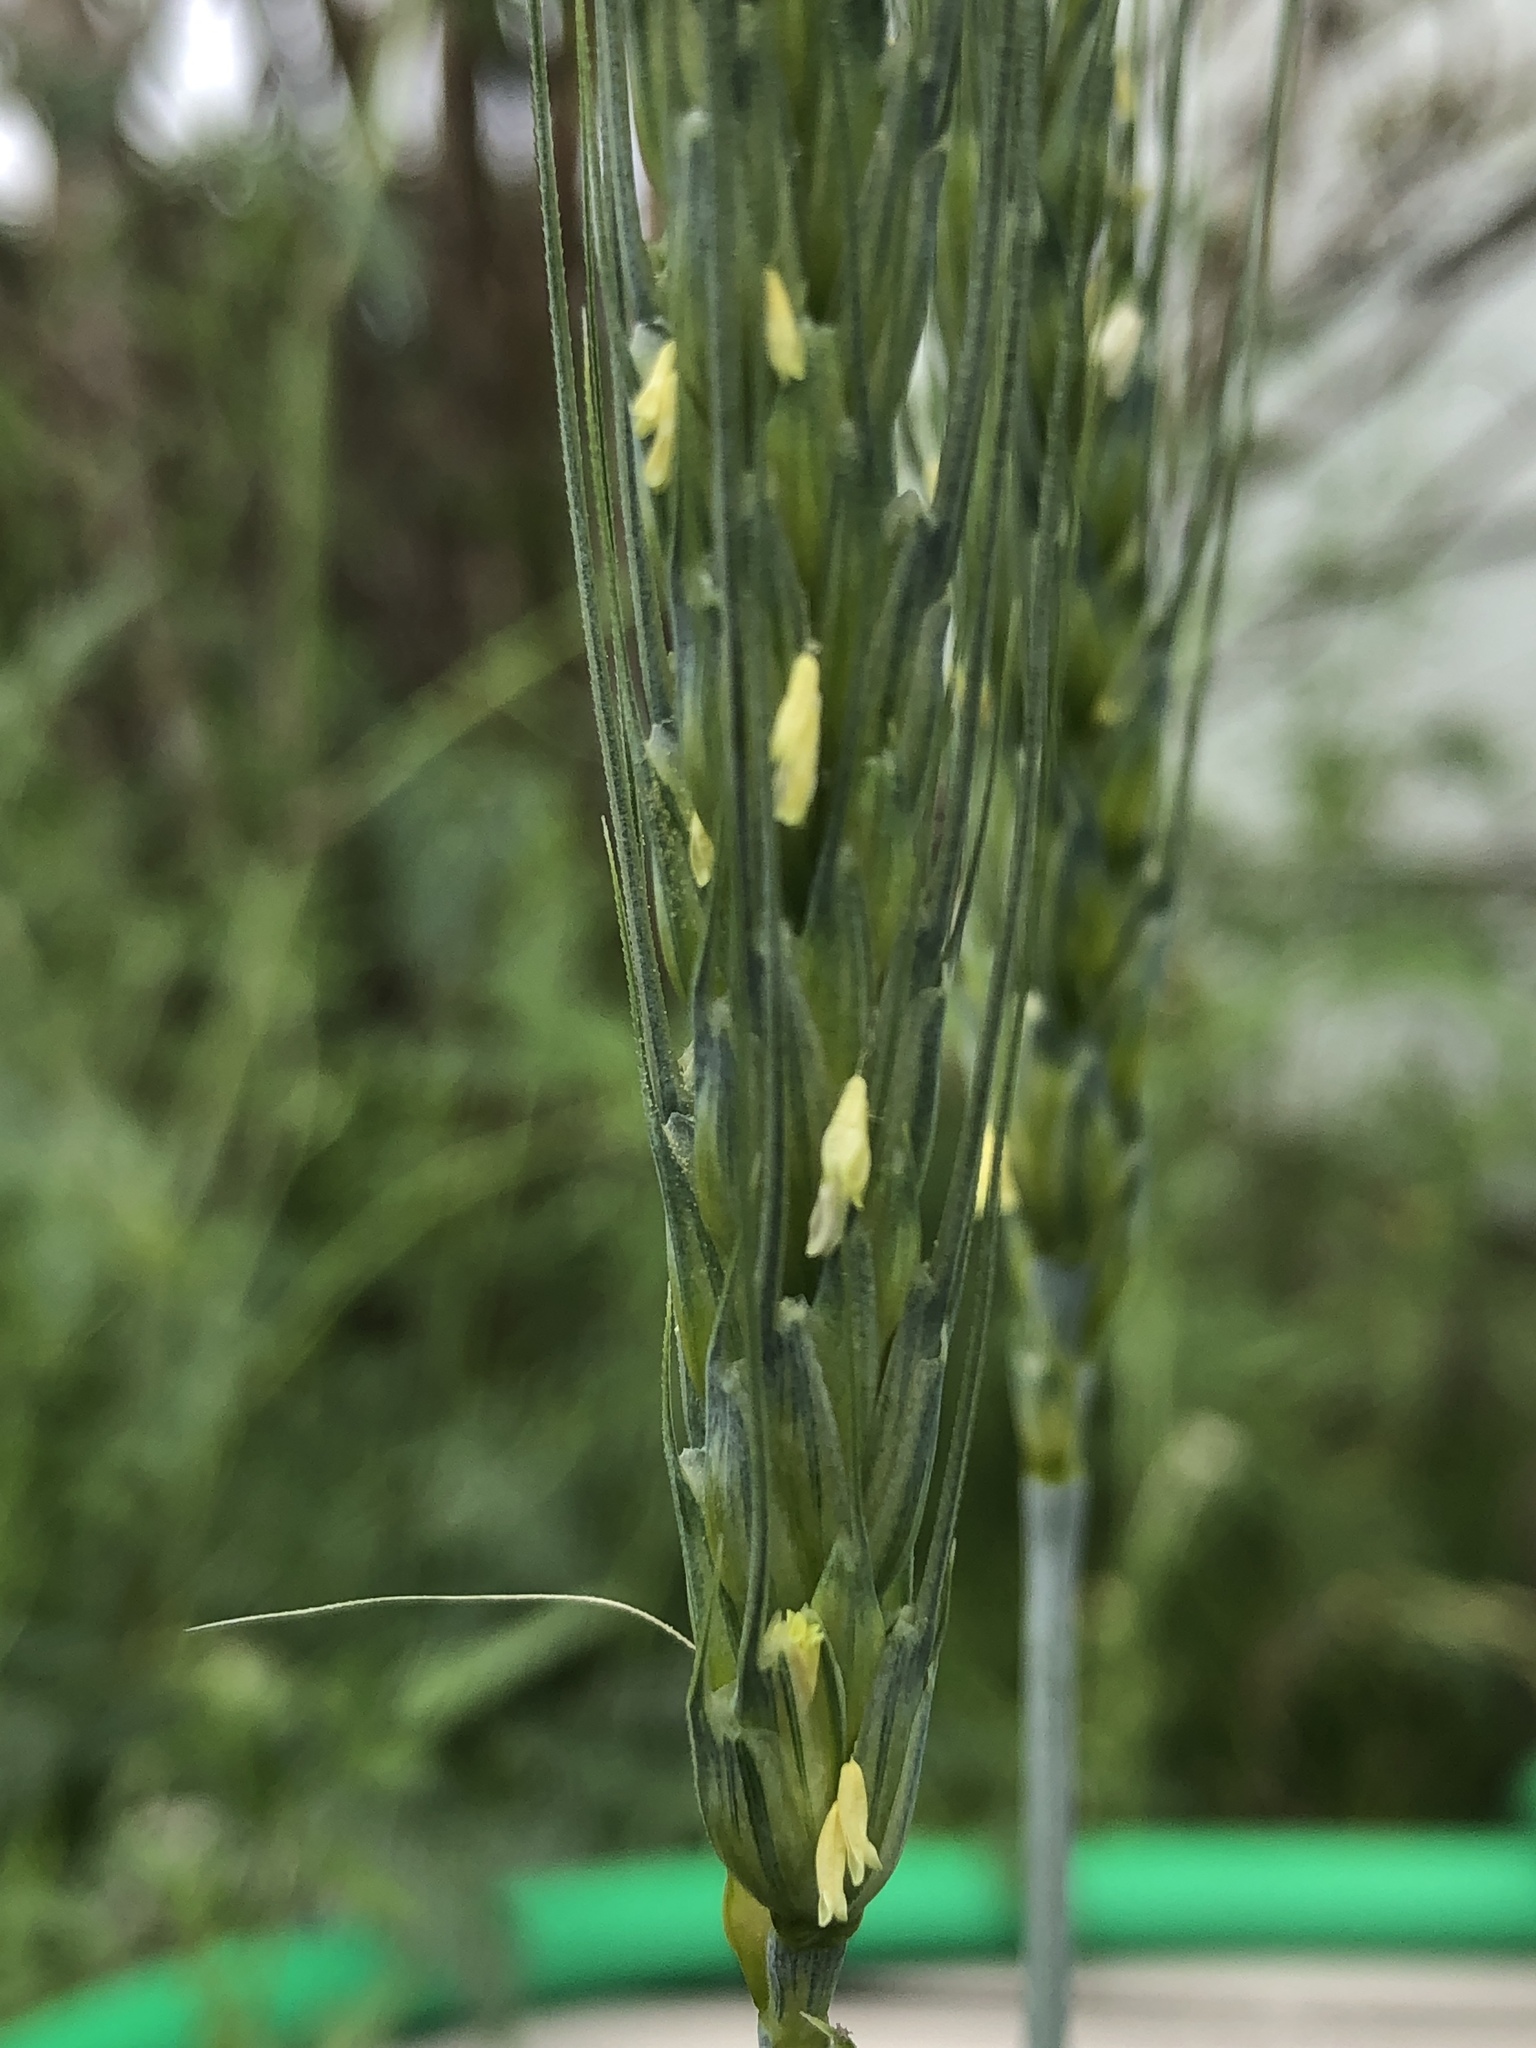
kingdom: Plantae
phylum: Tracheophyta
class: Liliopsida
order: Poales
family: Poaceae
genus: Triticum
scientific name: Triticum aestivum
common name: Common wheat
